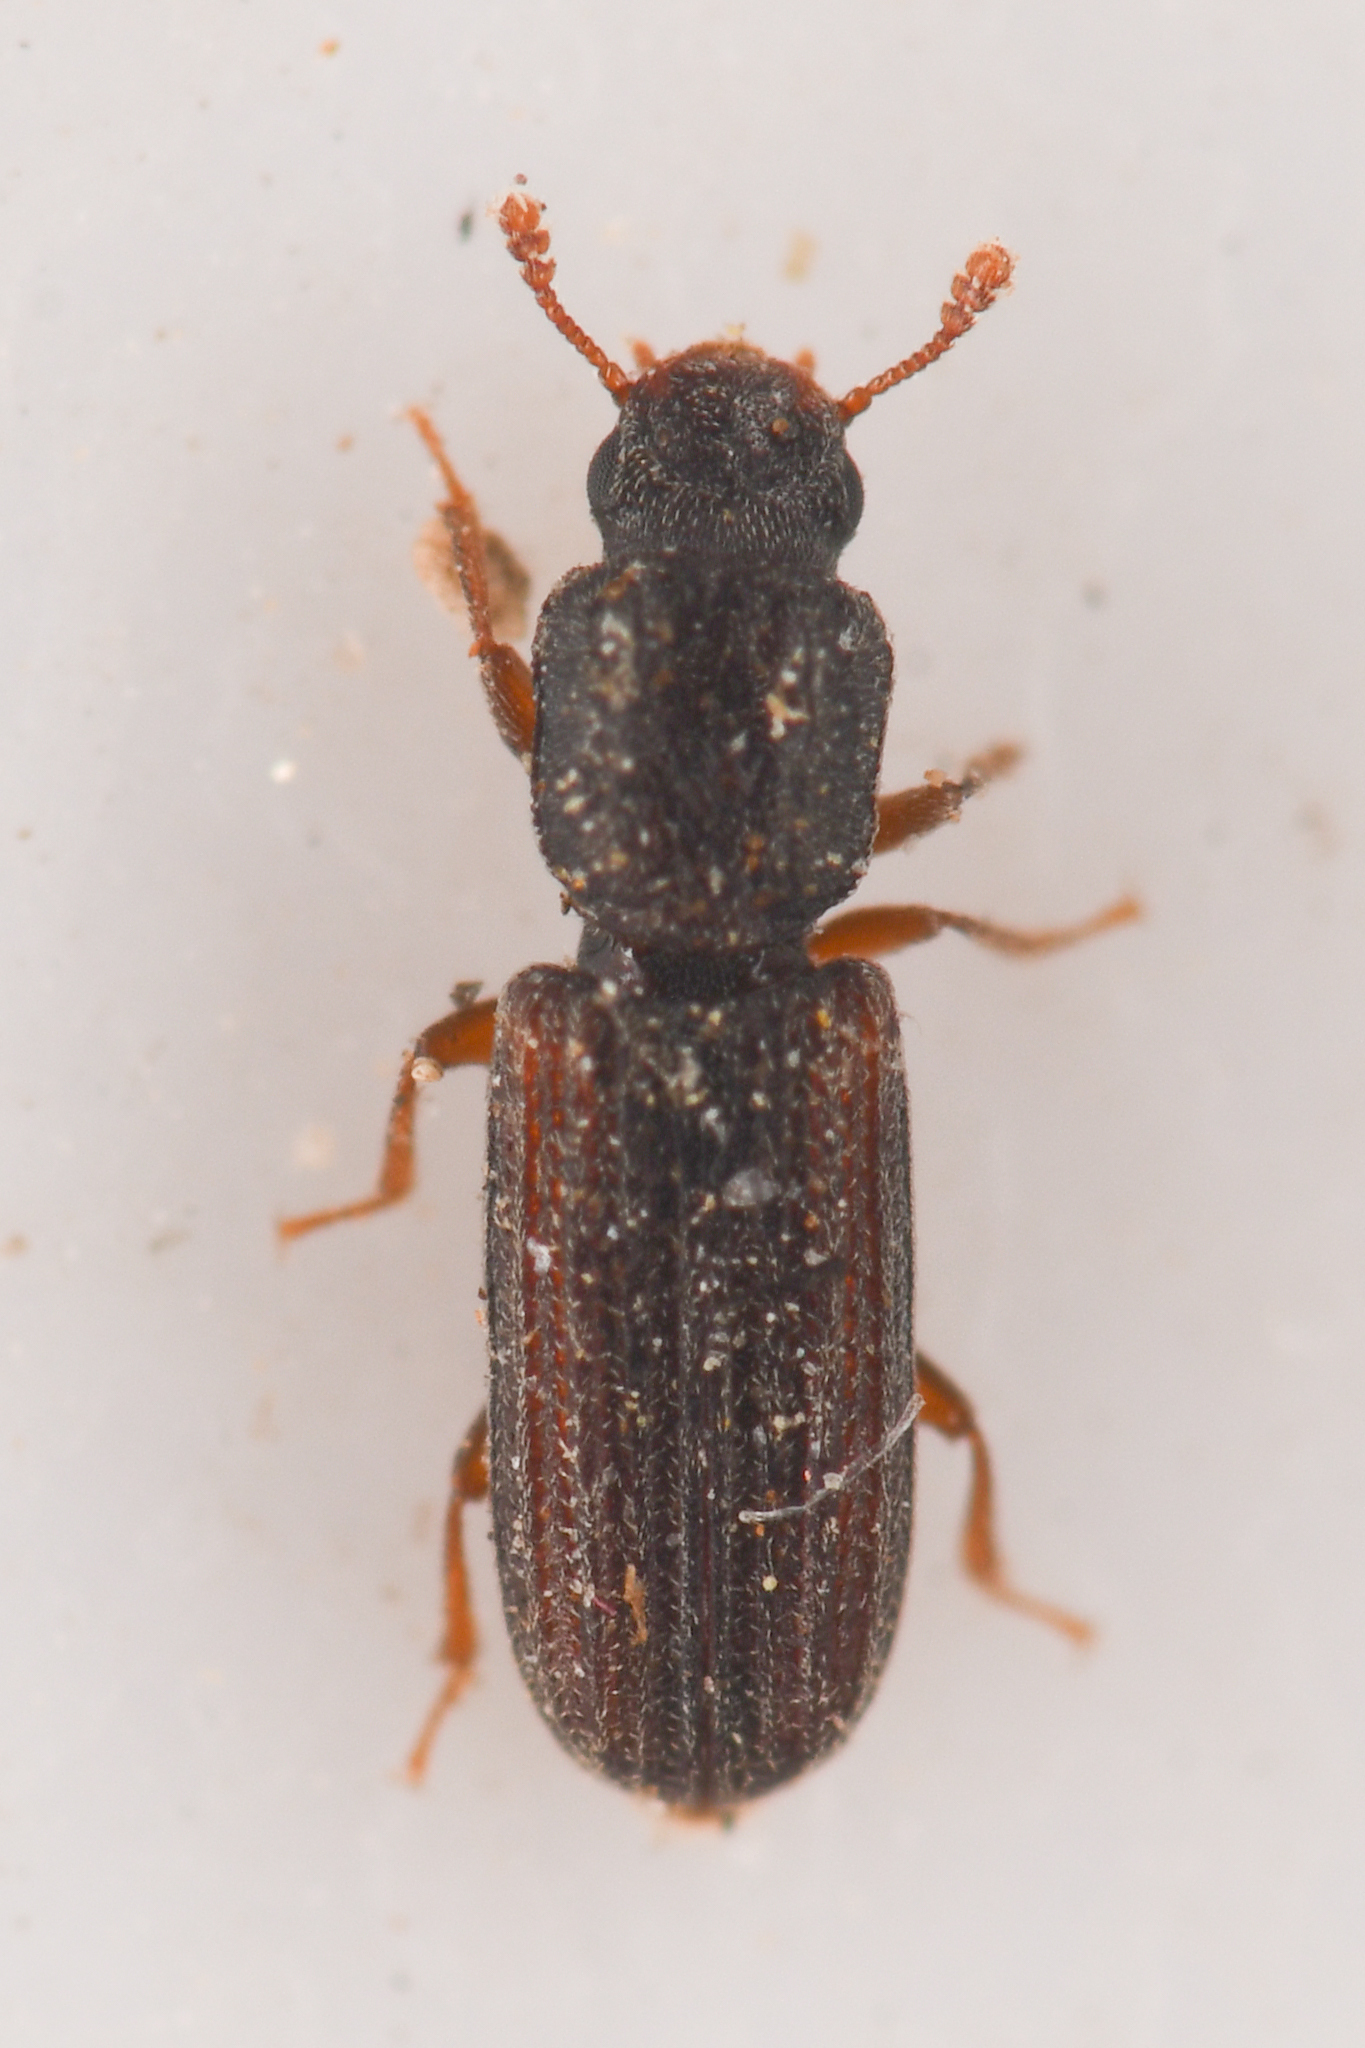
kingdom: Animalia
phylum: Arthropoda
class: Insecta
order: Coleoptera
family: Zopheridae
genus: Lasconotus
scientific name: Lasconotus subcostulatus
